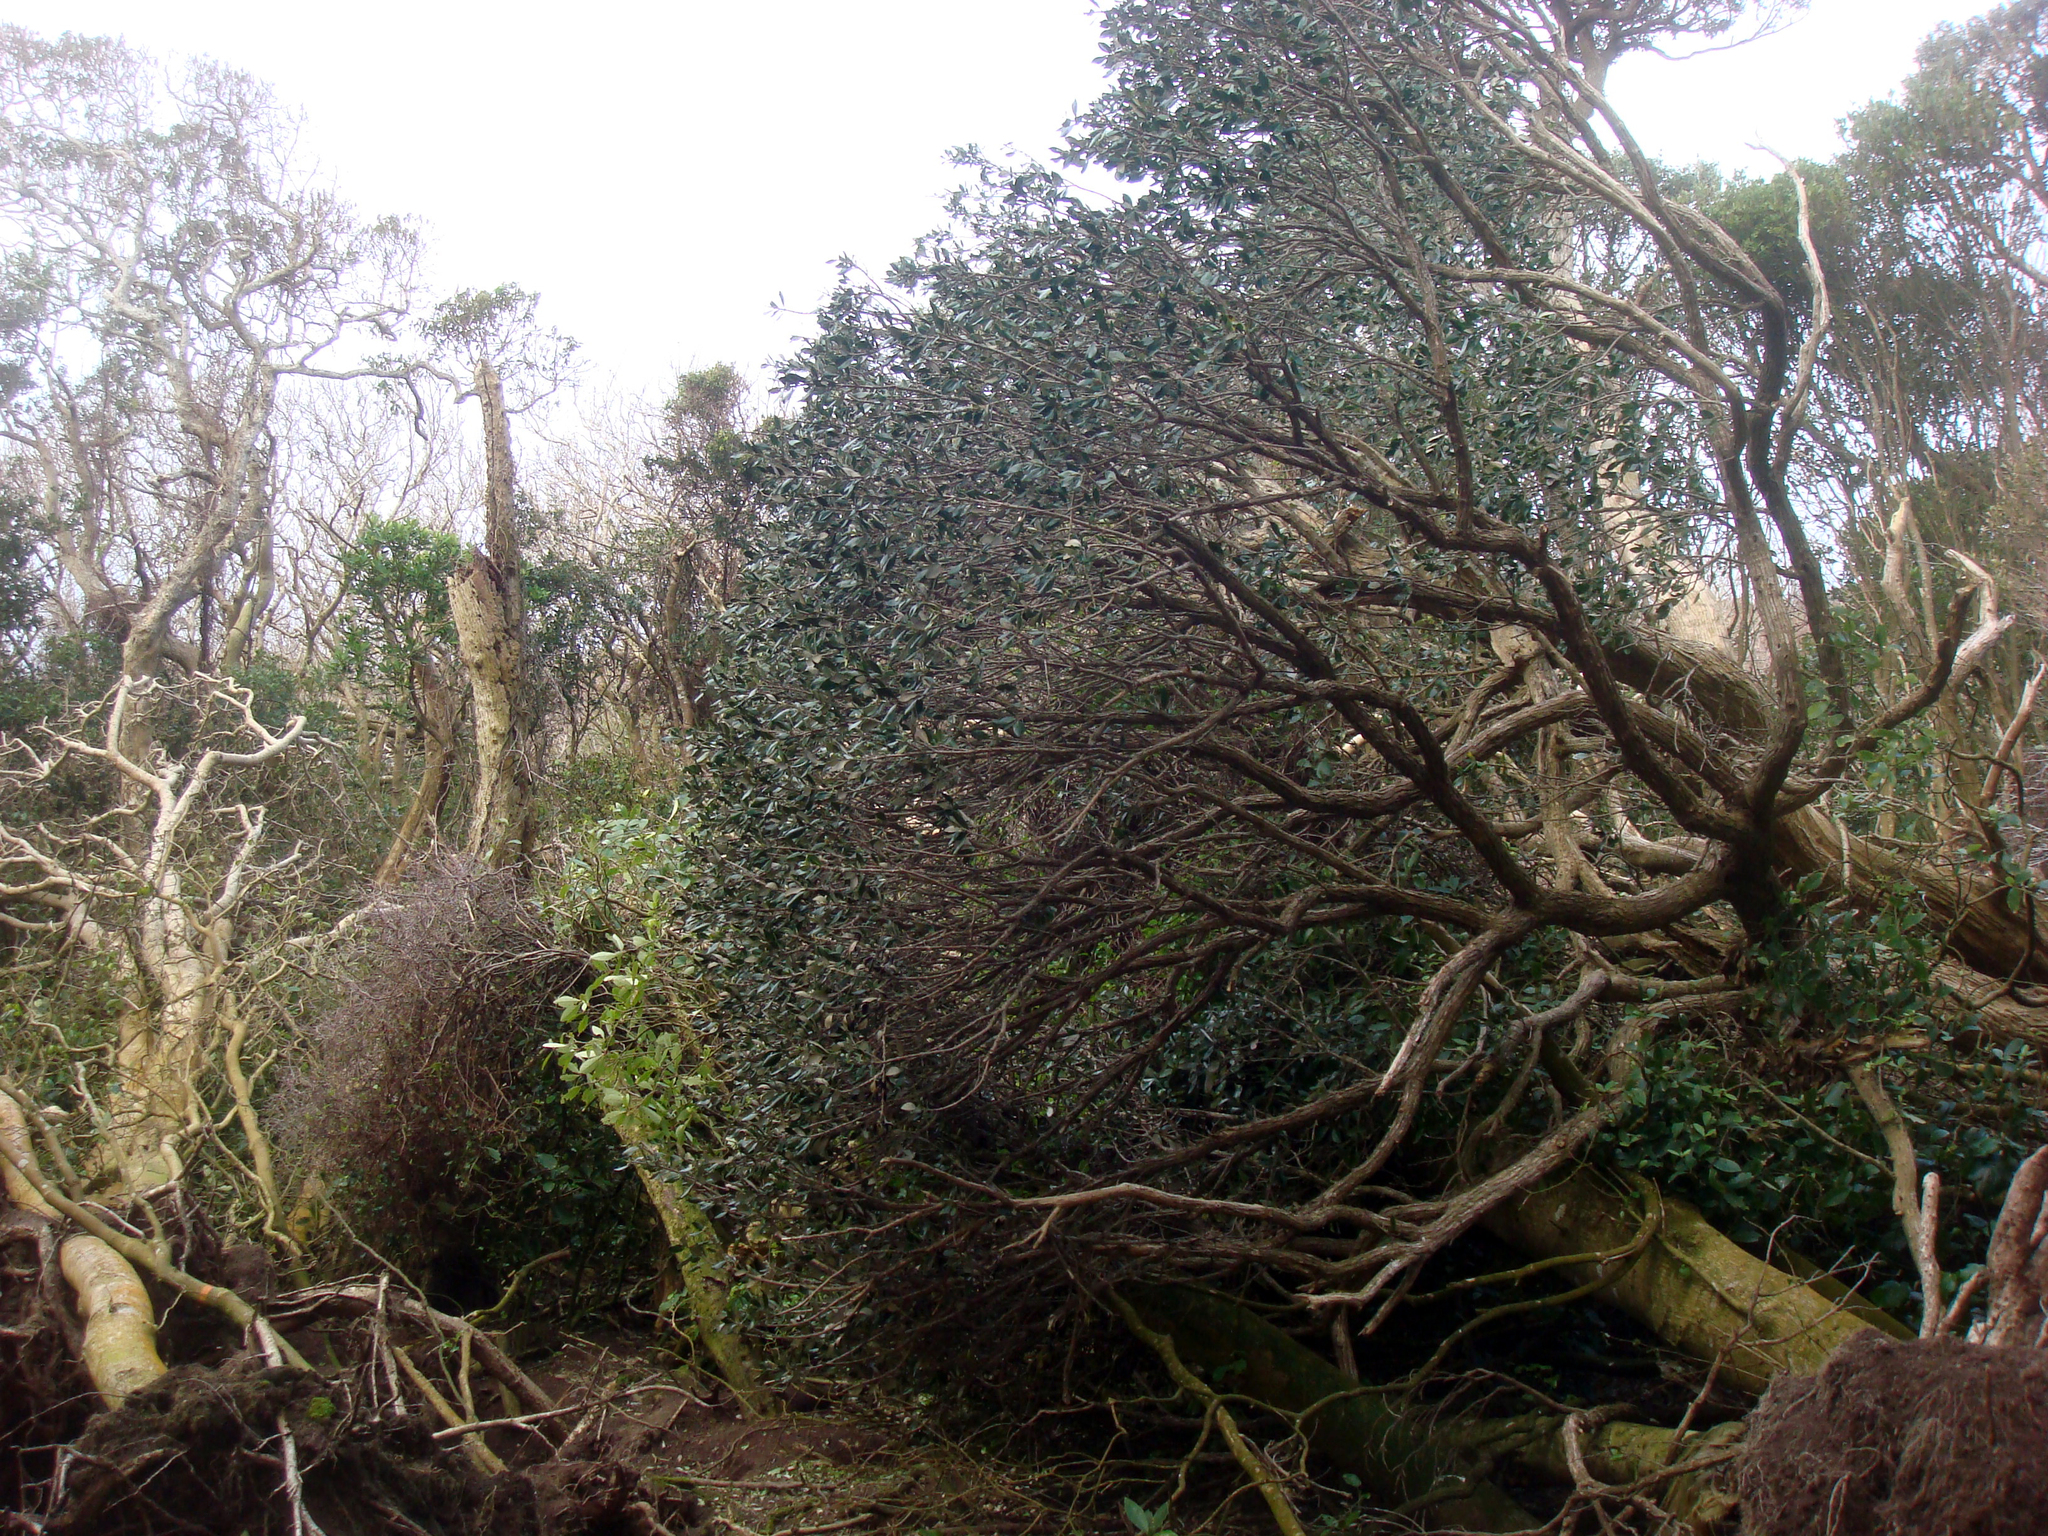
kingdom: Plantae
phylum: Tracheophyta
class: Magnoliopsida
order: Asterales
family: Asteraceae
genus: Olearia
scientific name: Olearia traversiorum
